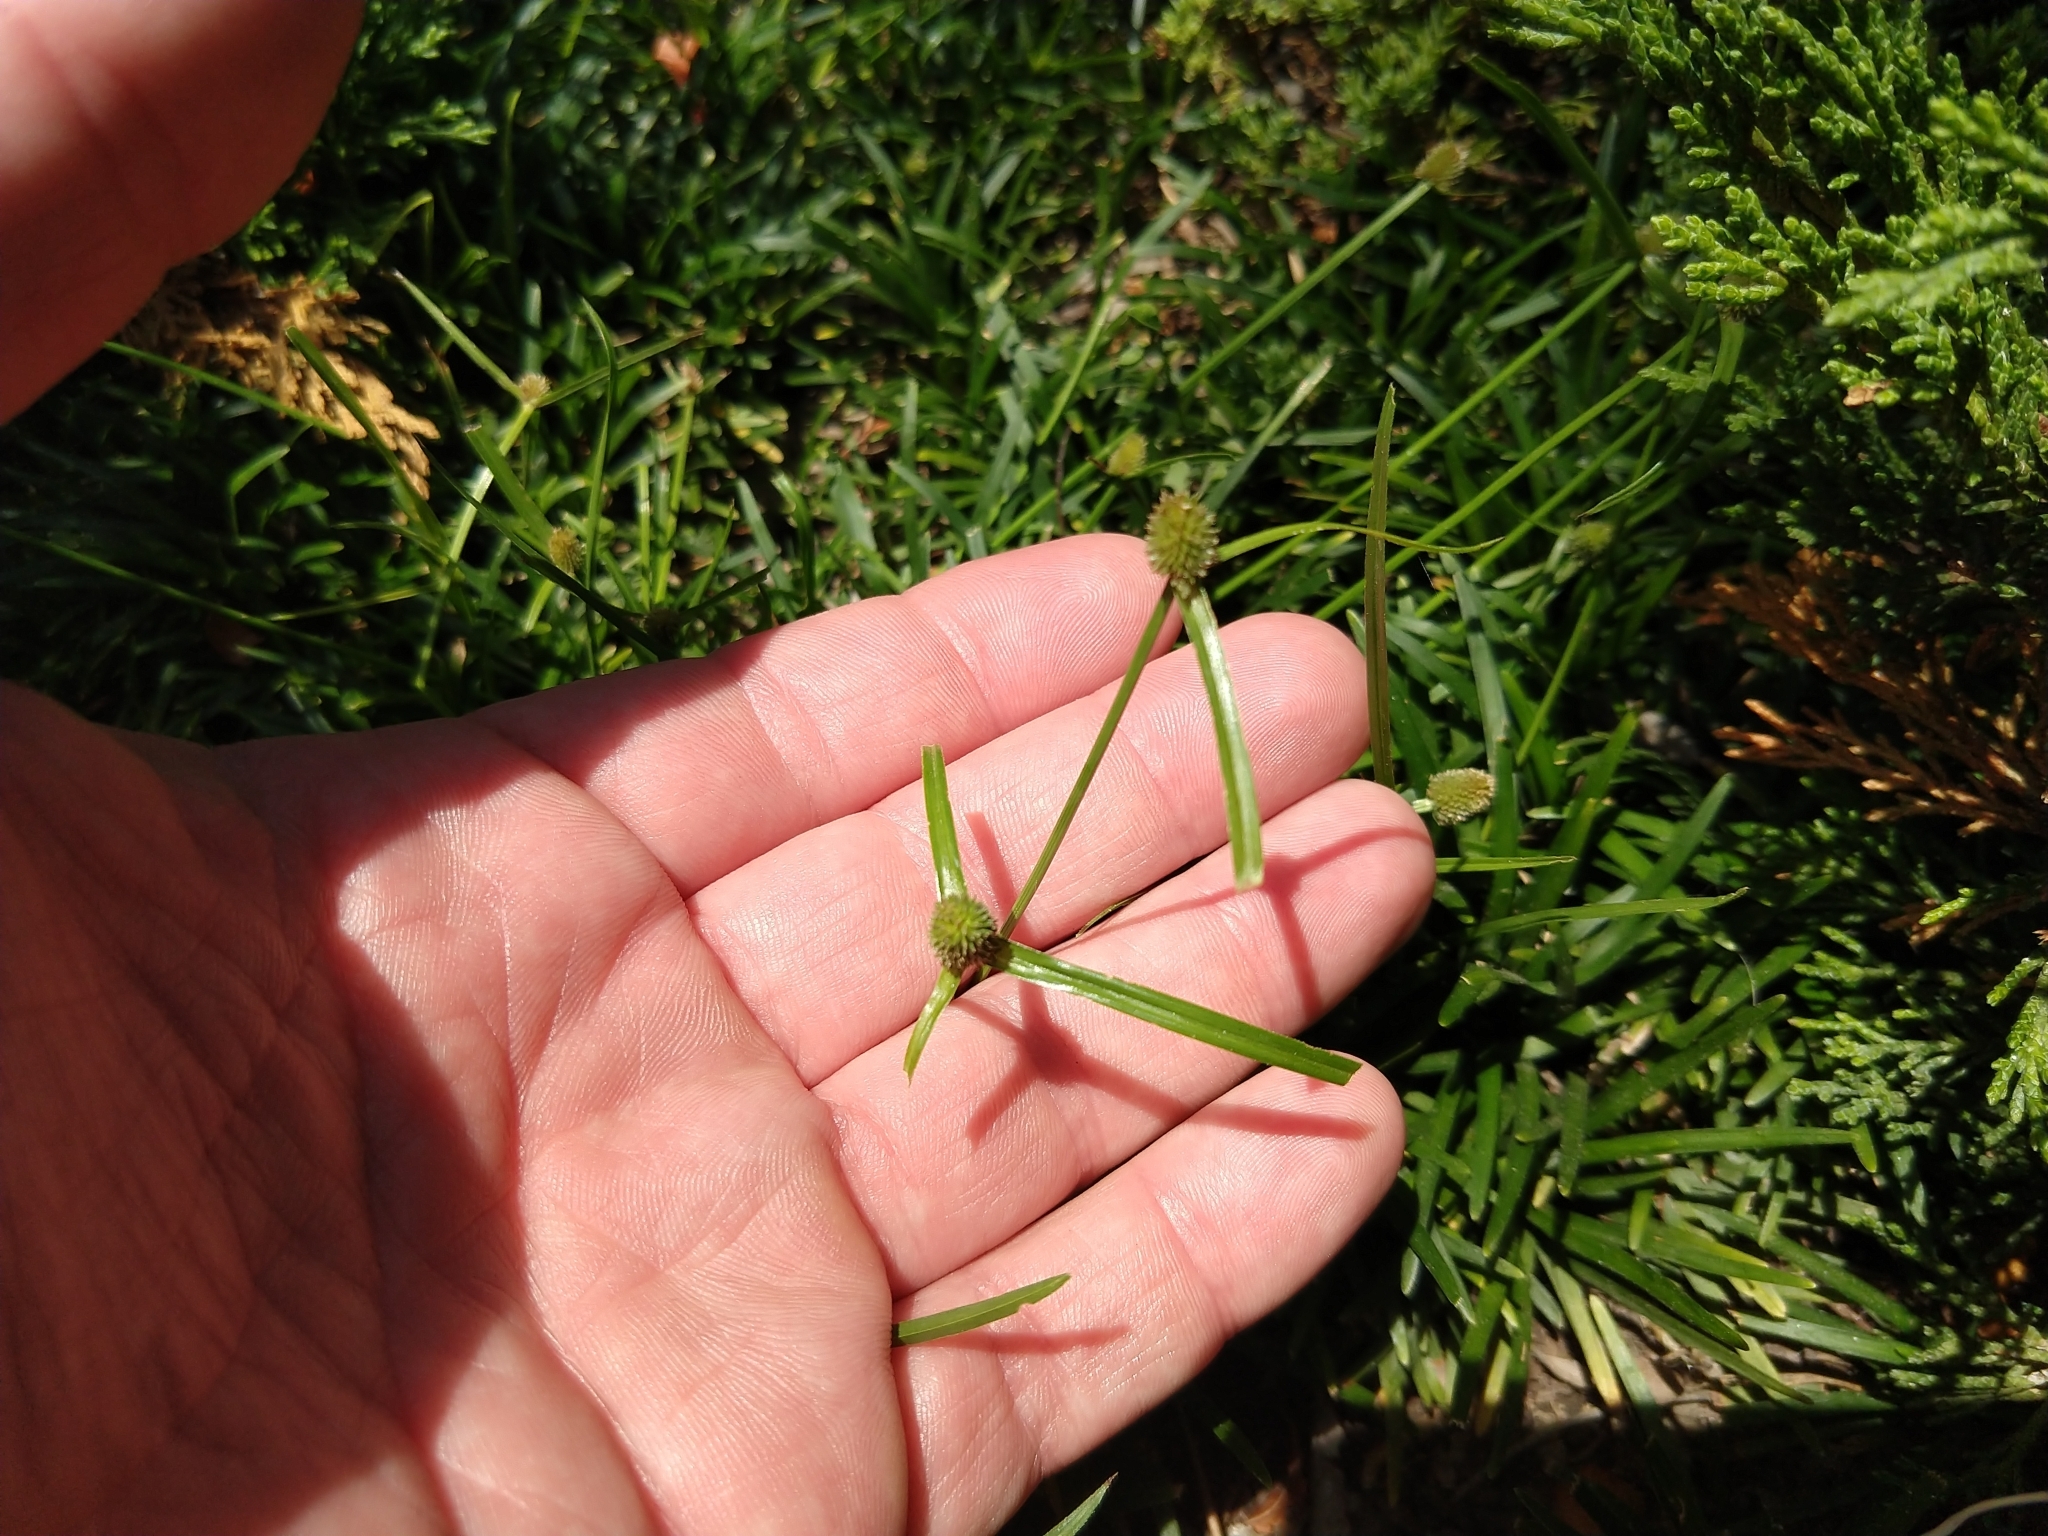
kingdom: Plantae
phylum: Tracheophyta
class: Liliopsida
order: Poales
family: Cyperaceae
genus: Cyperus
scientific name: Cyperus brevifolius
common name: Globe kyllinga
